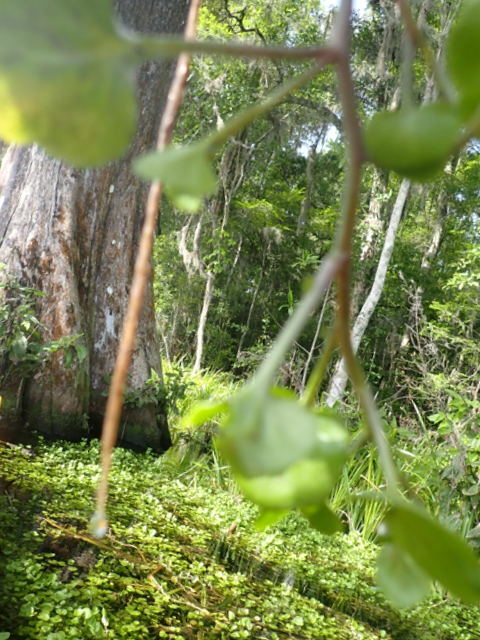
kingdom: Plantae
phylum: Tracheophyta
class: Magnoliopsida
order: Brassicales
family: Brassicaceae
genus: Nasturtium
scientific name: Nasturtium floridanum
